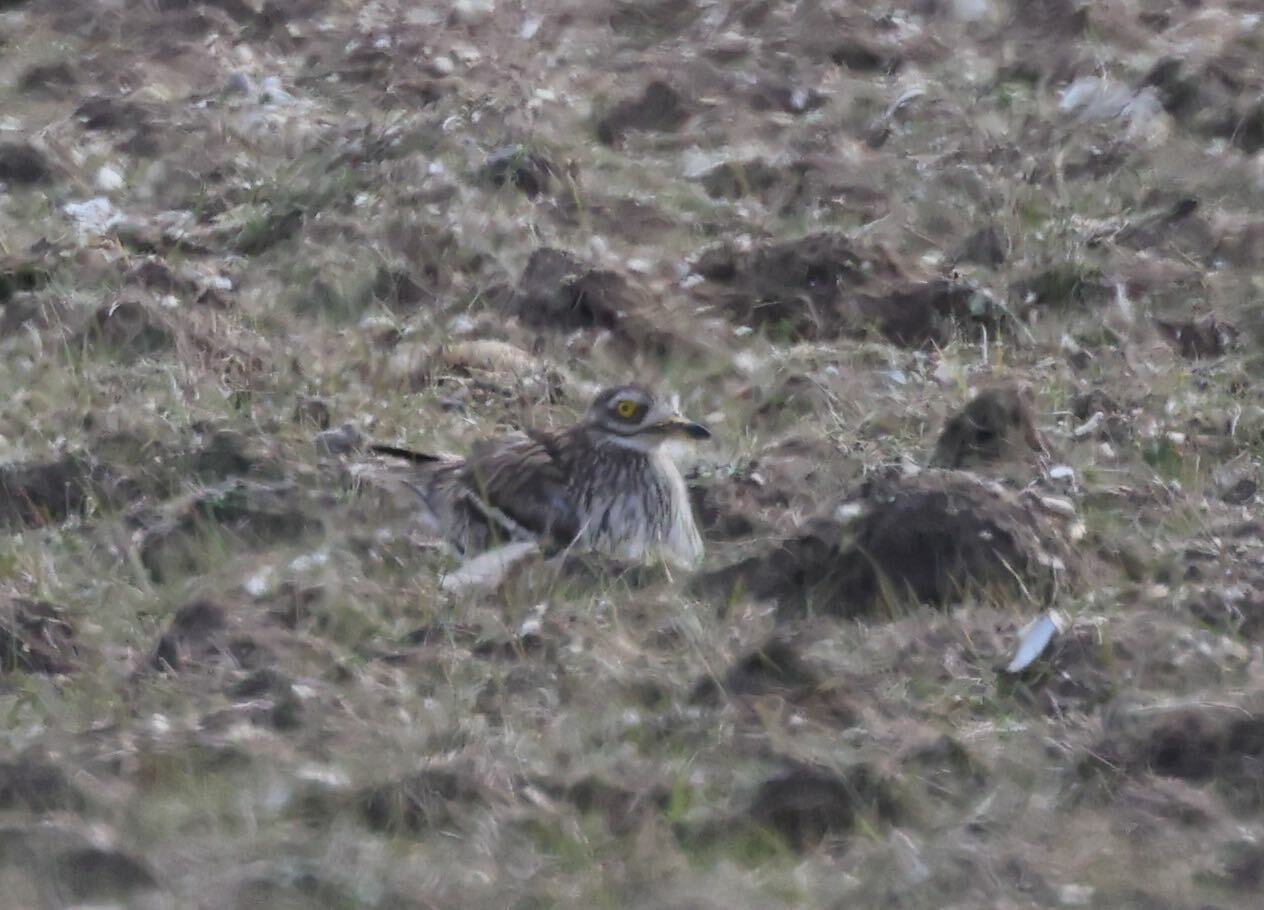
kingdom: Animalia
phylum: Chordata
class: Aves
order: Charadriiformes
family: Burhinidae
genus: Burhinus
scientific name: Burhinus oedicnemus
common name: Eurasian stone-curlew
